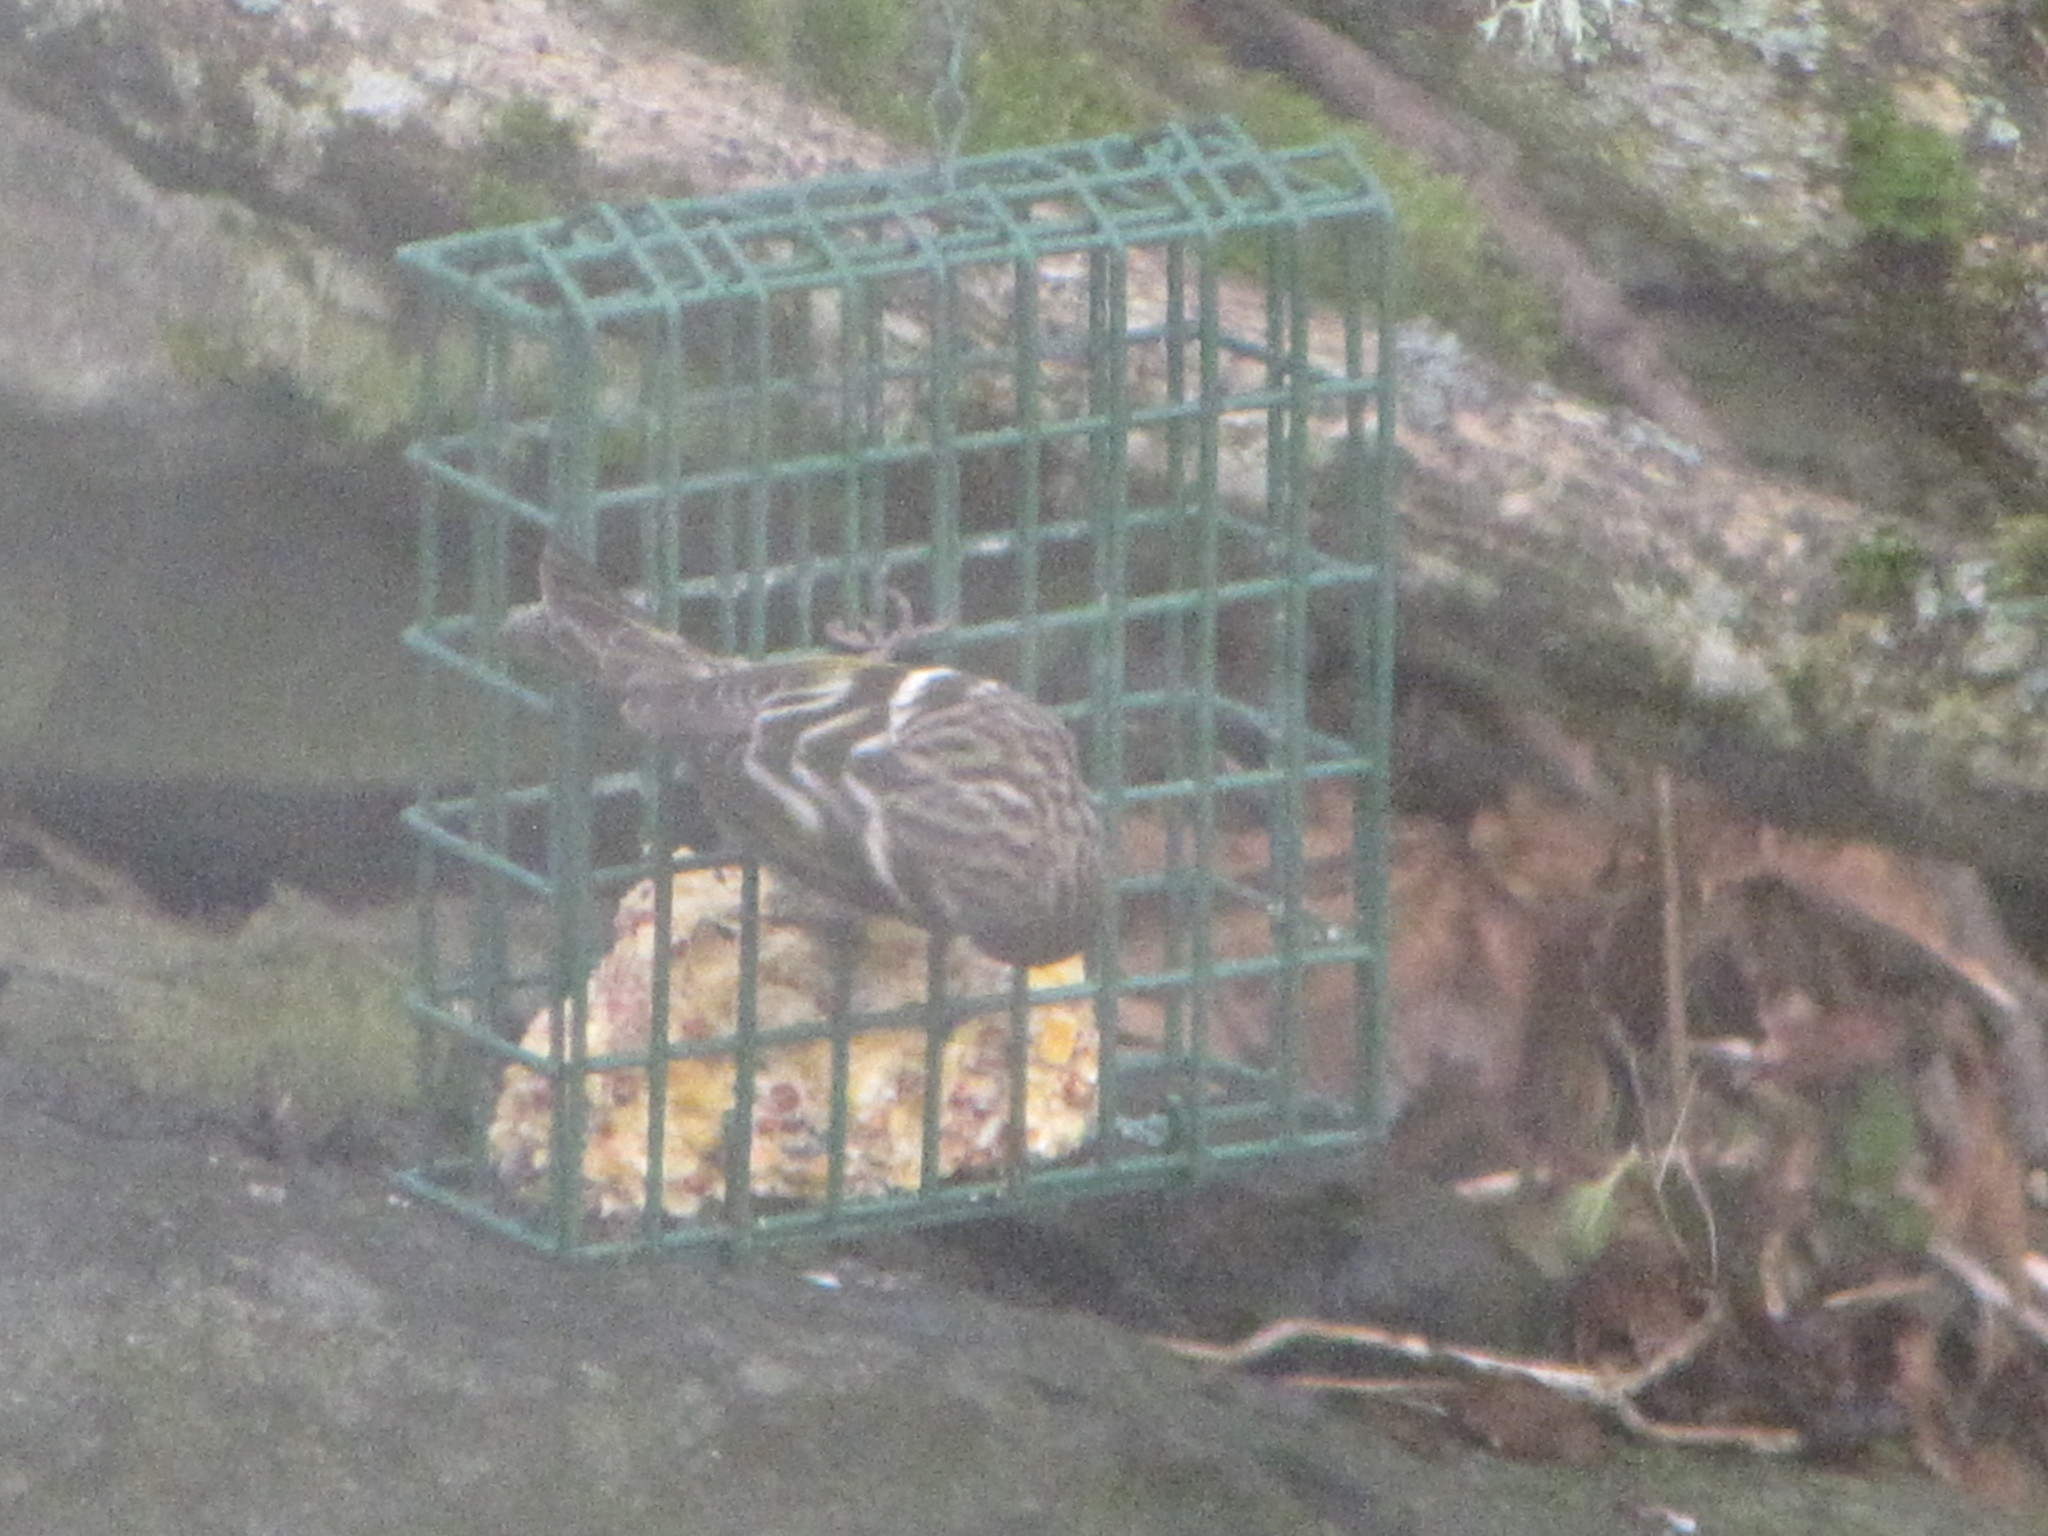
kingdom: Animalia
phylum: Chordata
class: Aves
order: Passeriformes
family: Fringillidae
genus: Spinus
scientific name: Spinus pinus
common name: Pine siskin
